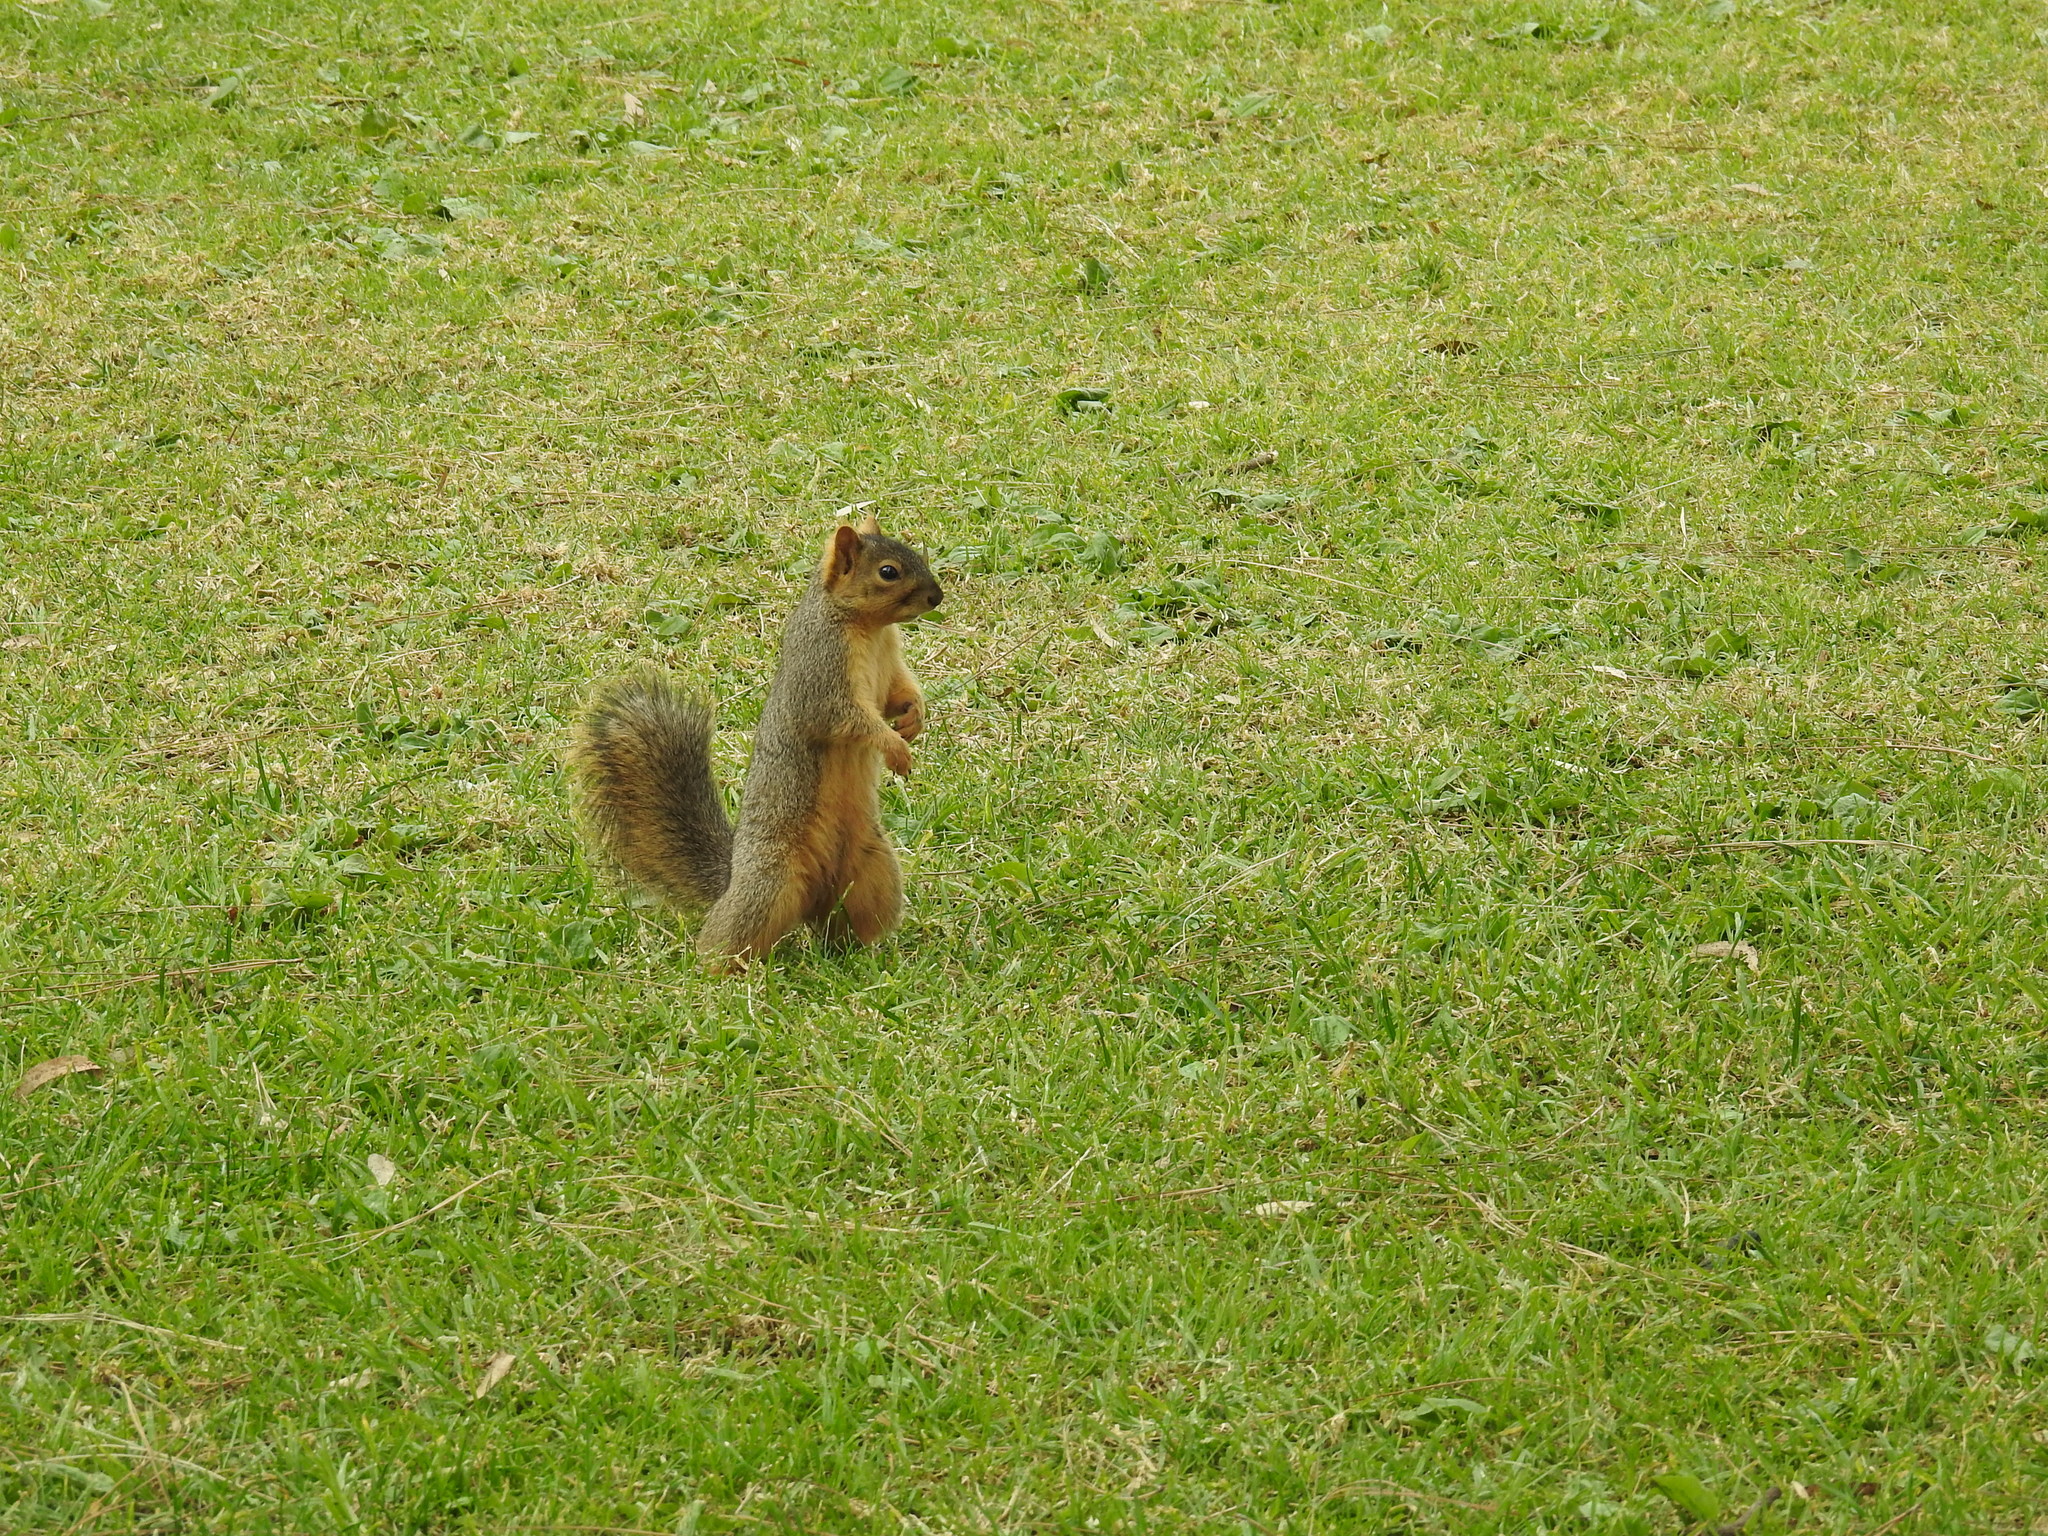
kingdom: Animalia
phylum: Chordata
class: Mammalia
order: Rodentia
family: Sciuridae
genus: Sciurus
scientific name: Sciurus niger
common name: Fox squirrel
